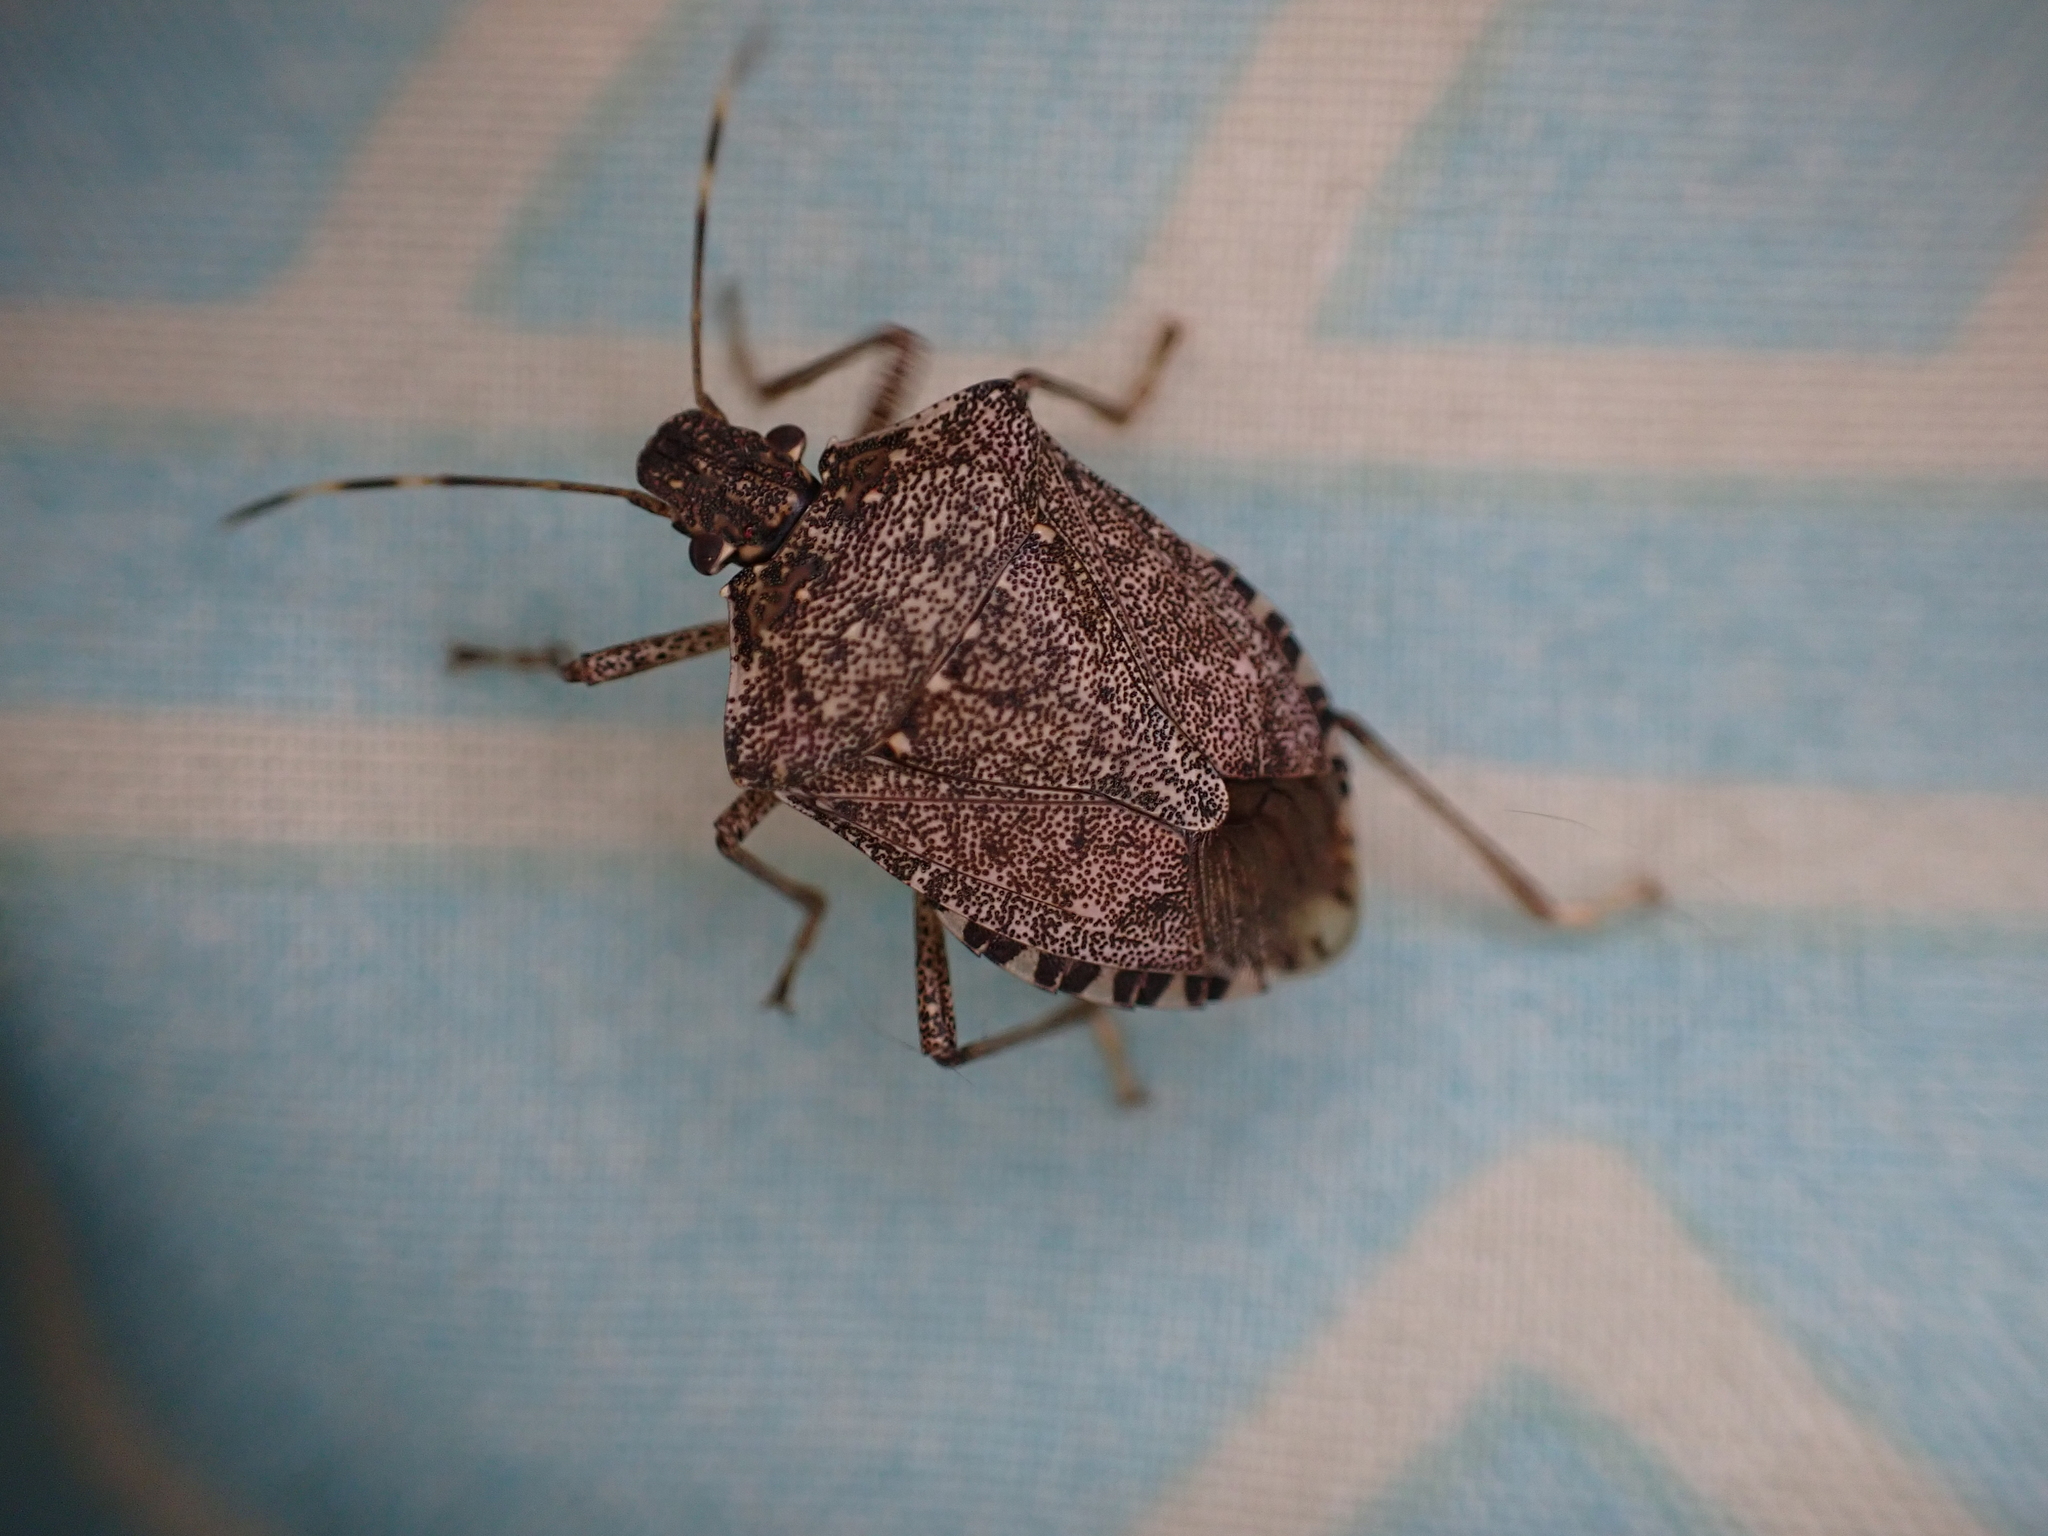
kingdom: Animalia
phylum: Arthropoda
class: Insecta
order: Hemiptera
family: Pentatomidae
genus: Halyomorpha
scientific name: Halyomorpha halys
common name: Brown marmorated stink bug
